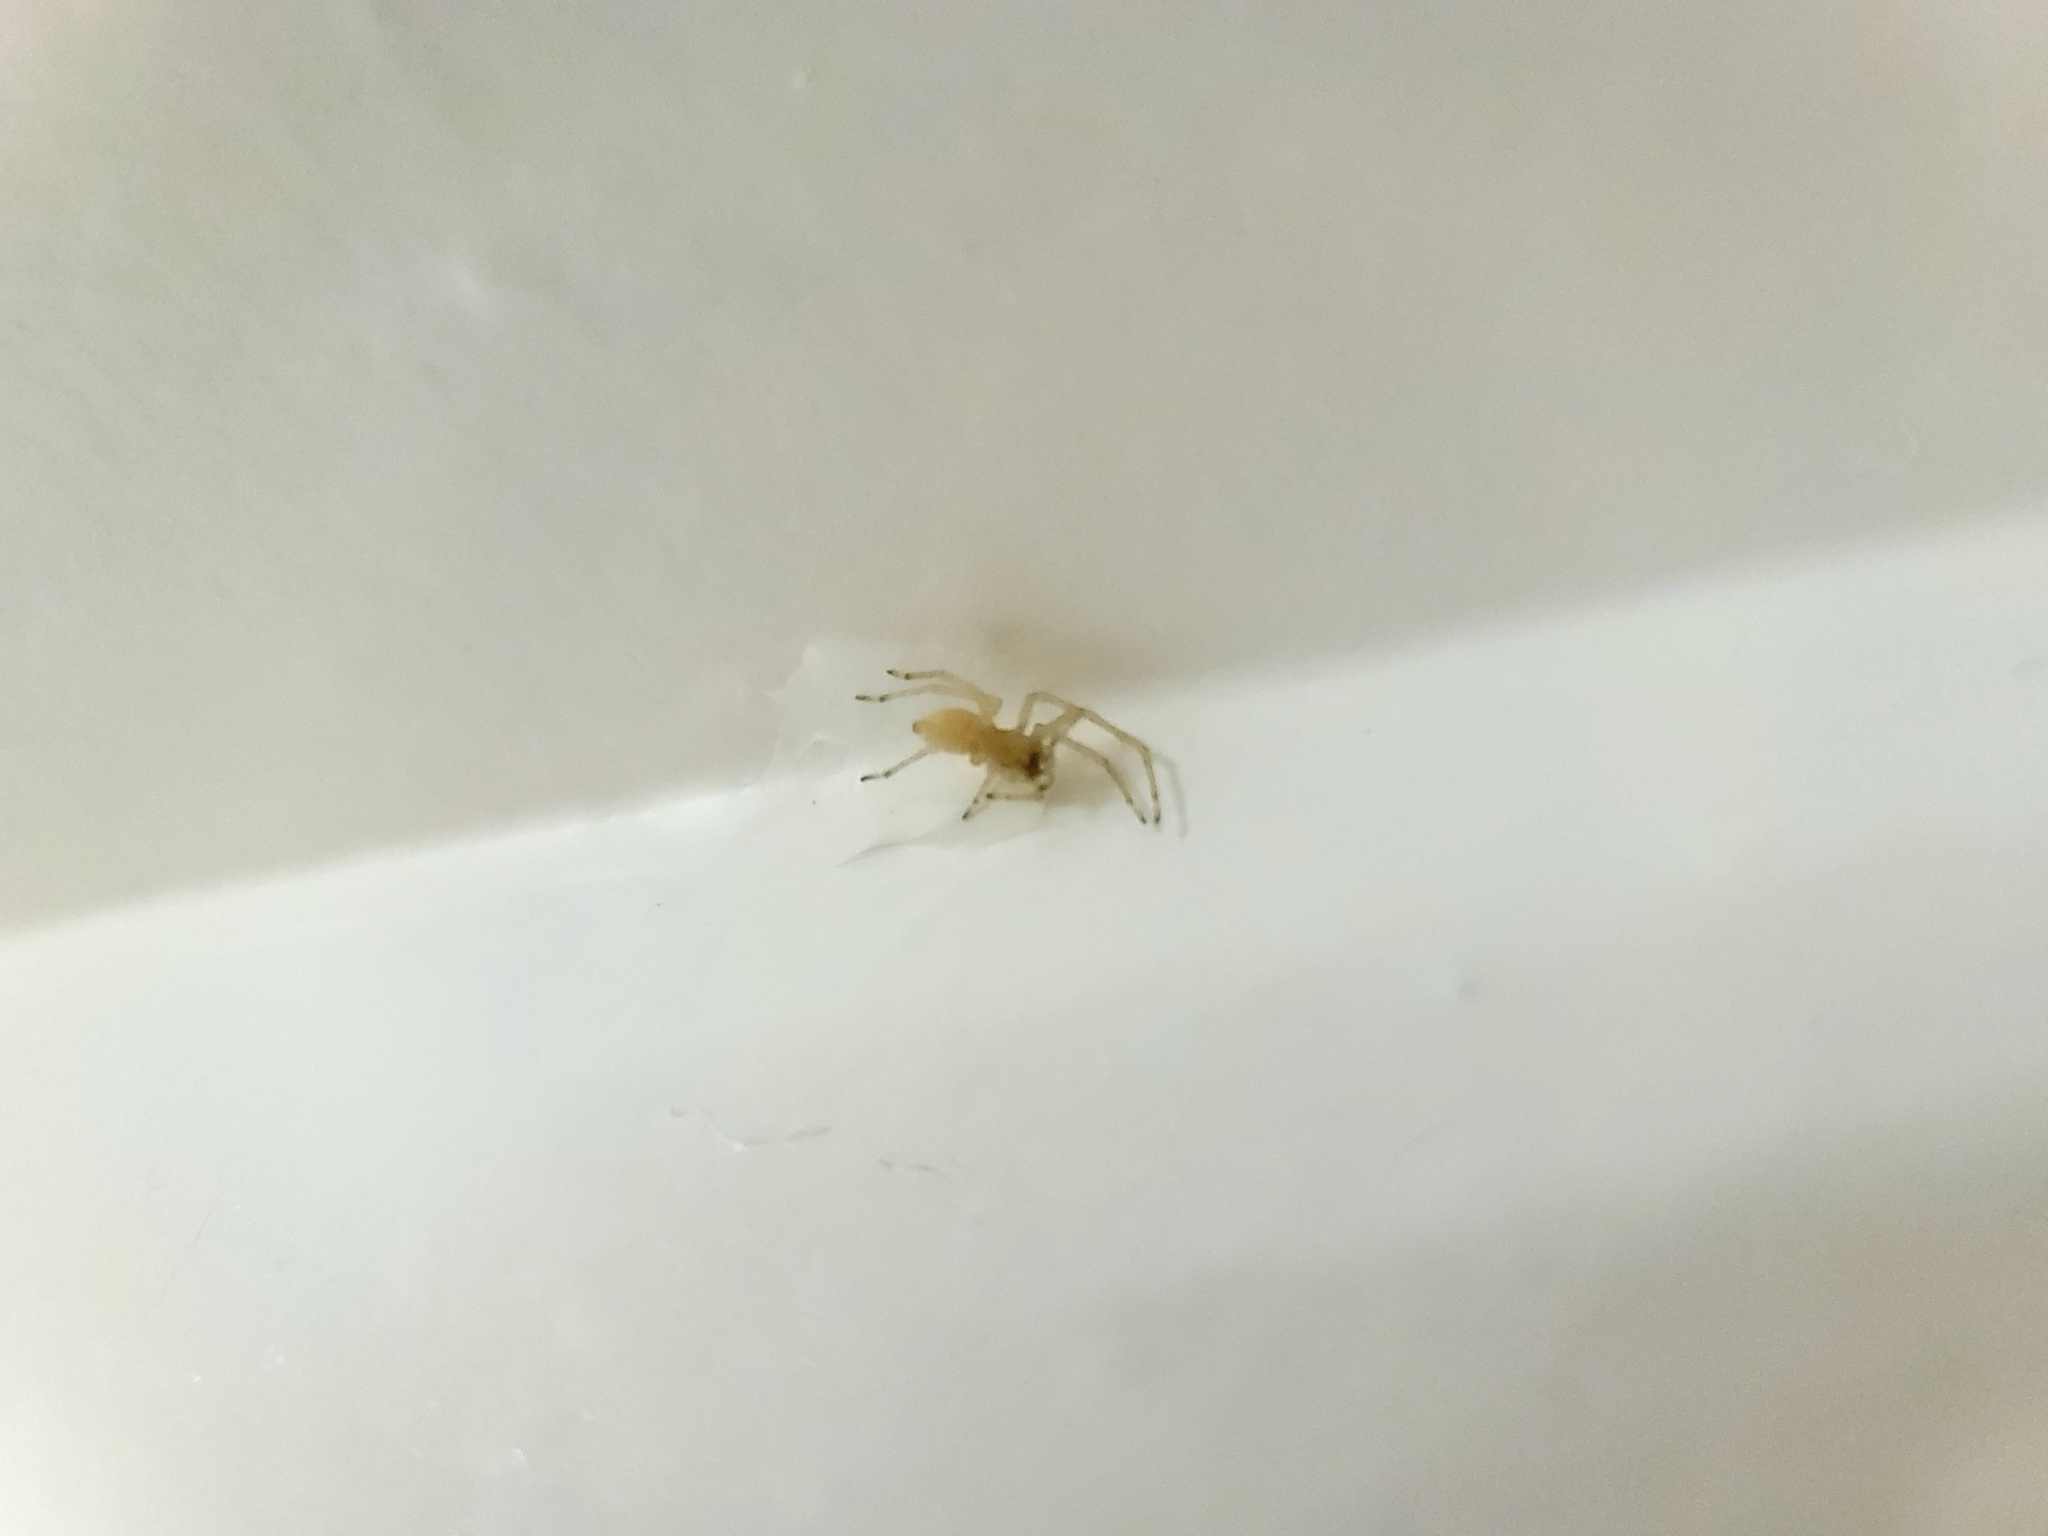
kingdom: Animalia
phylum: Arthropoda
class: Arachnida
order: Araneae
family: Cheiracanthiidae
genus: Cheiracanthium
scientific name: Cheiracanthium mildei
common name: Northern yellow sac spider
